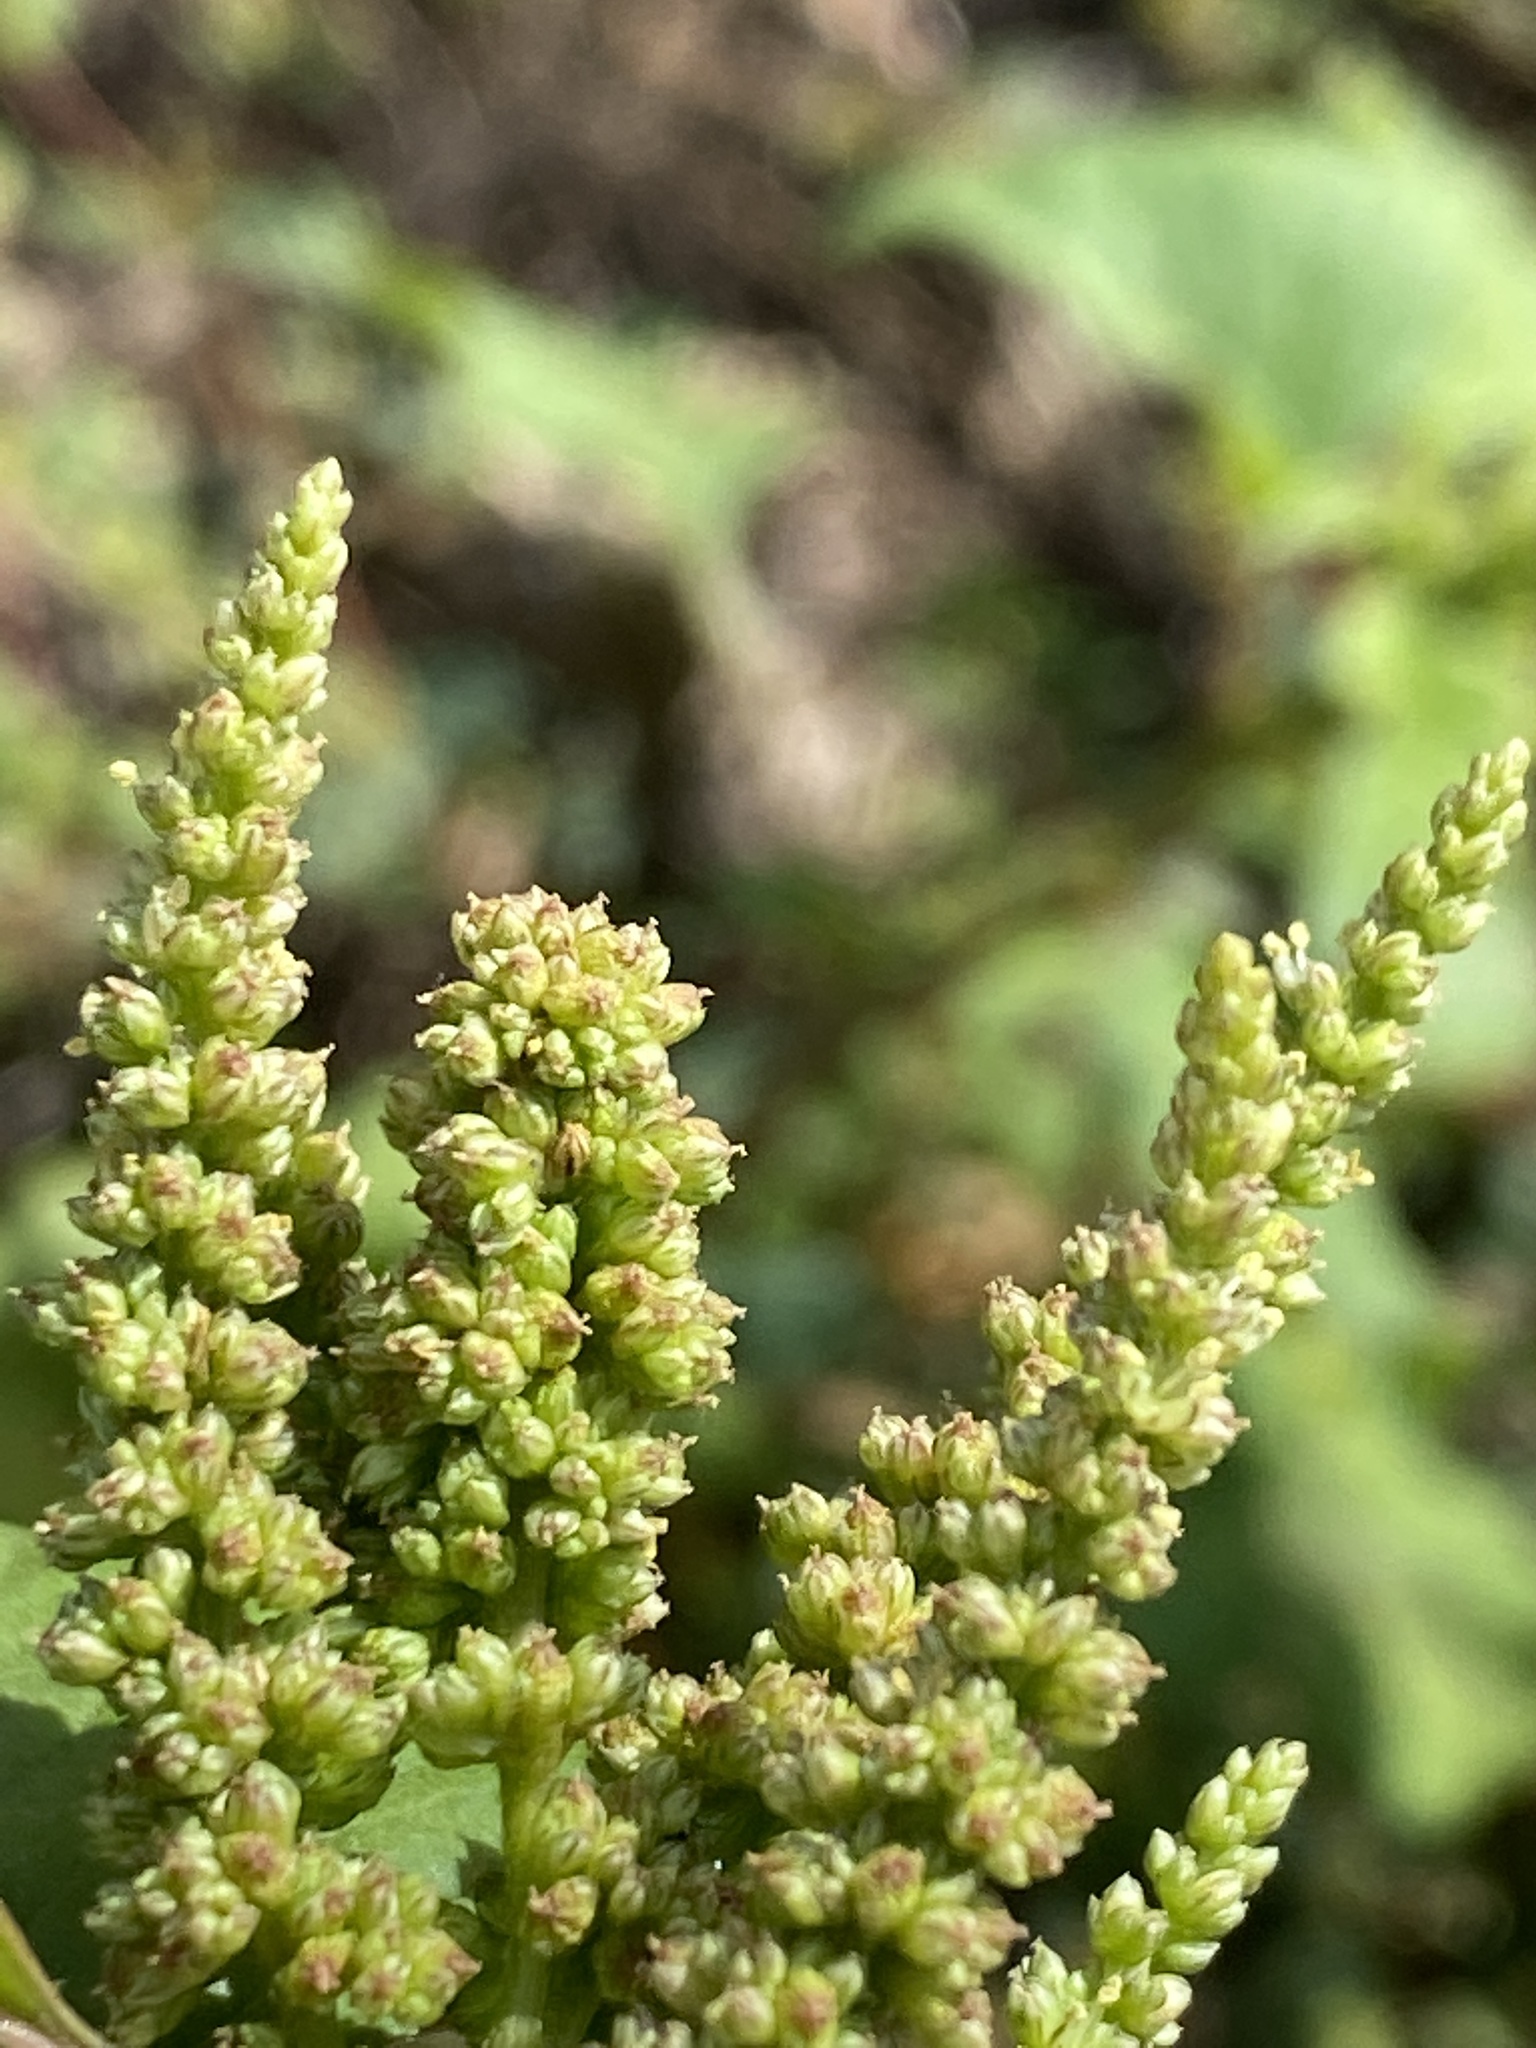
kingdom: Plantae
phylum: Tracheophyta
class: Magnoliopsida
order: Caryophyllales
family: Amaranthaceae
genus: Amaranthus
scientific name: Amaranthus viridis
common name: Slender amaranth
